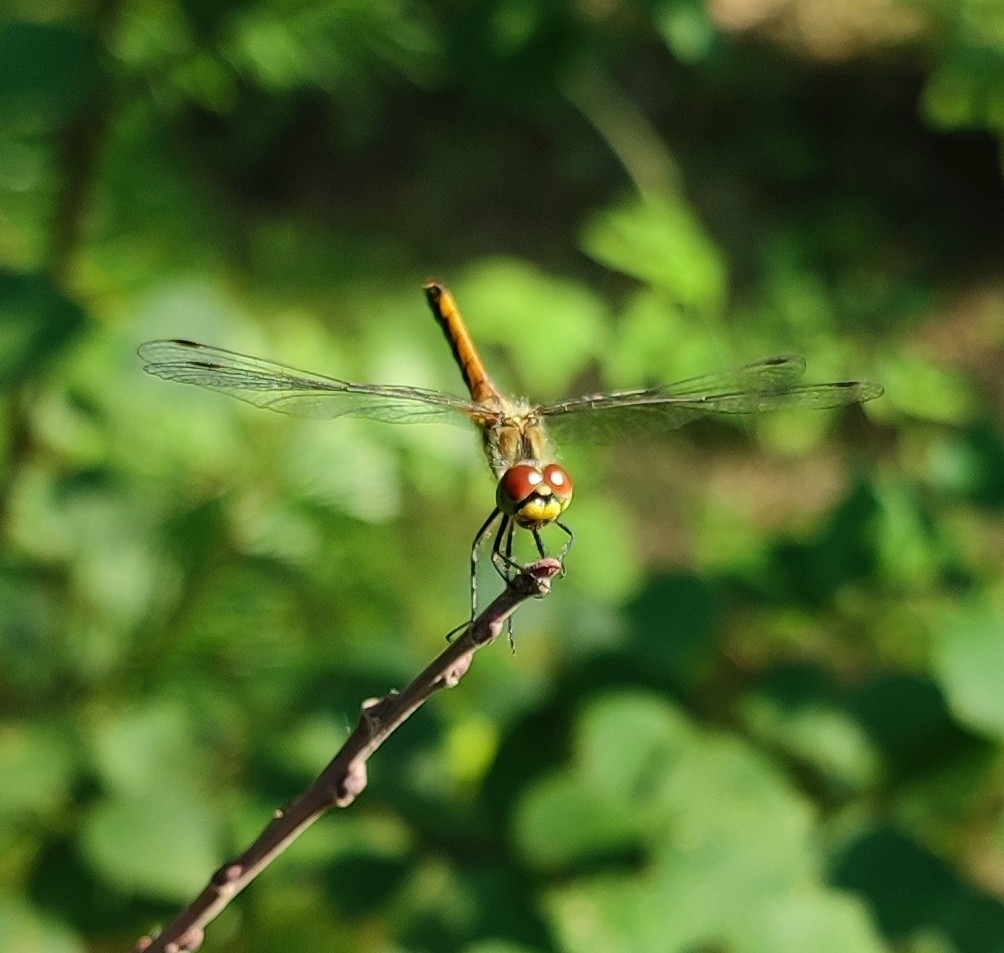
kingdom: Animalia
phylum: Arthropoda
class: Insecta
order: Odonata
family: Libellulidae
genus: Sympetrum
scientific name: Sympetrum danae
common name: Black darter
